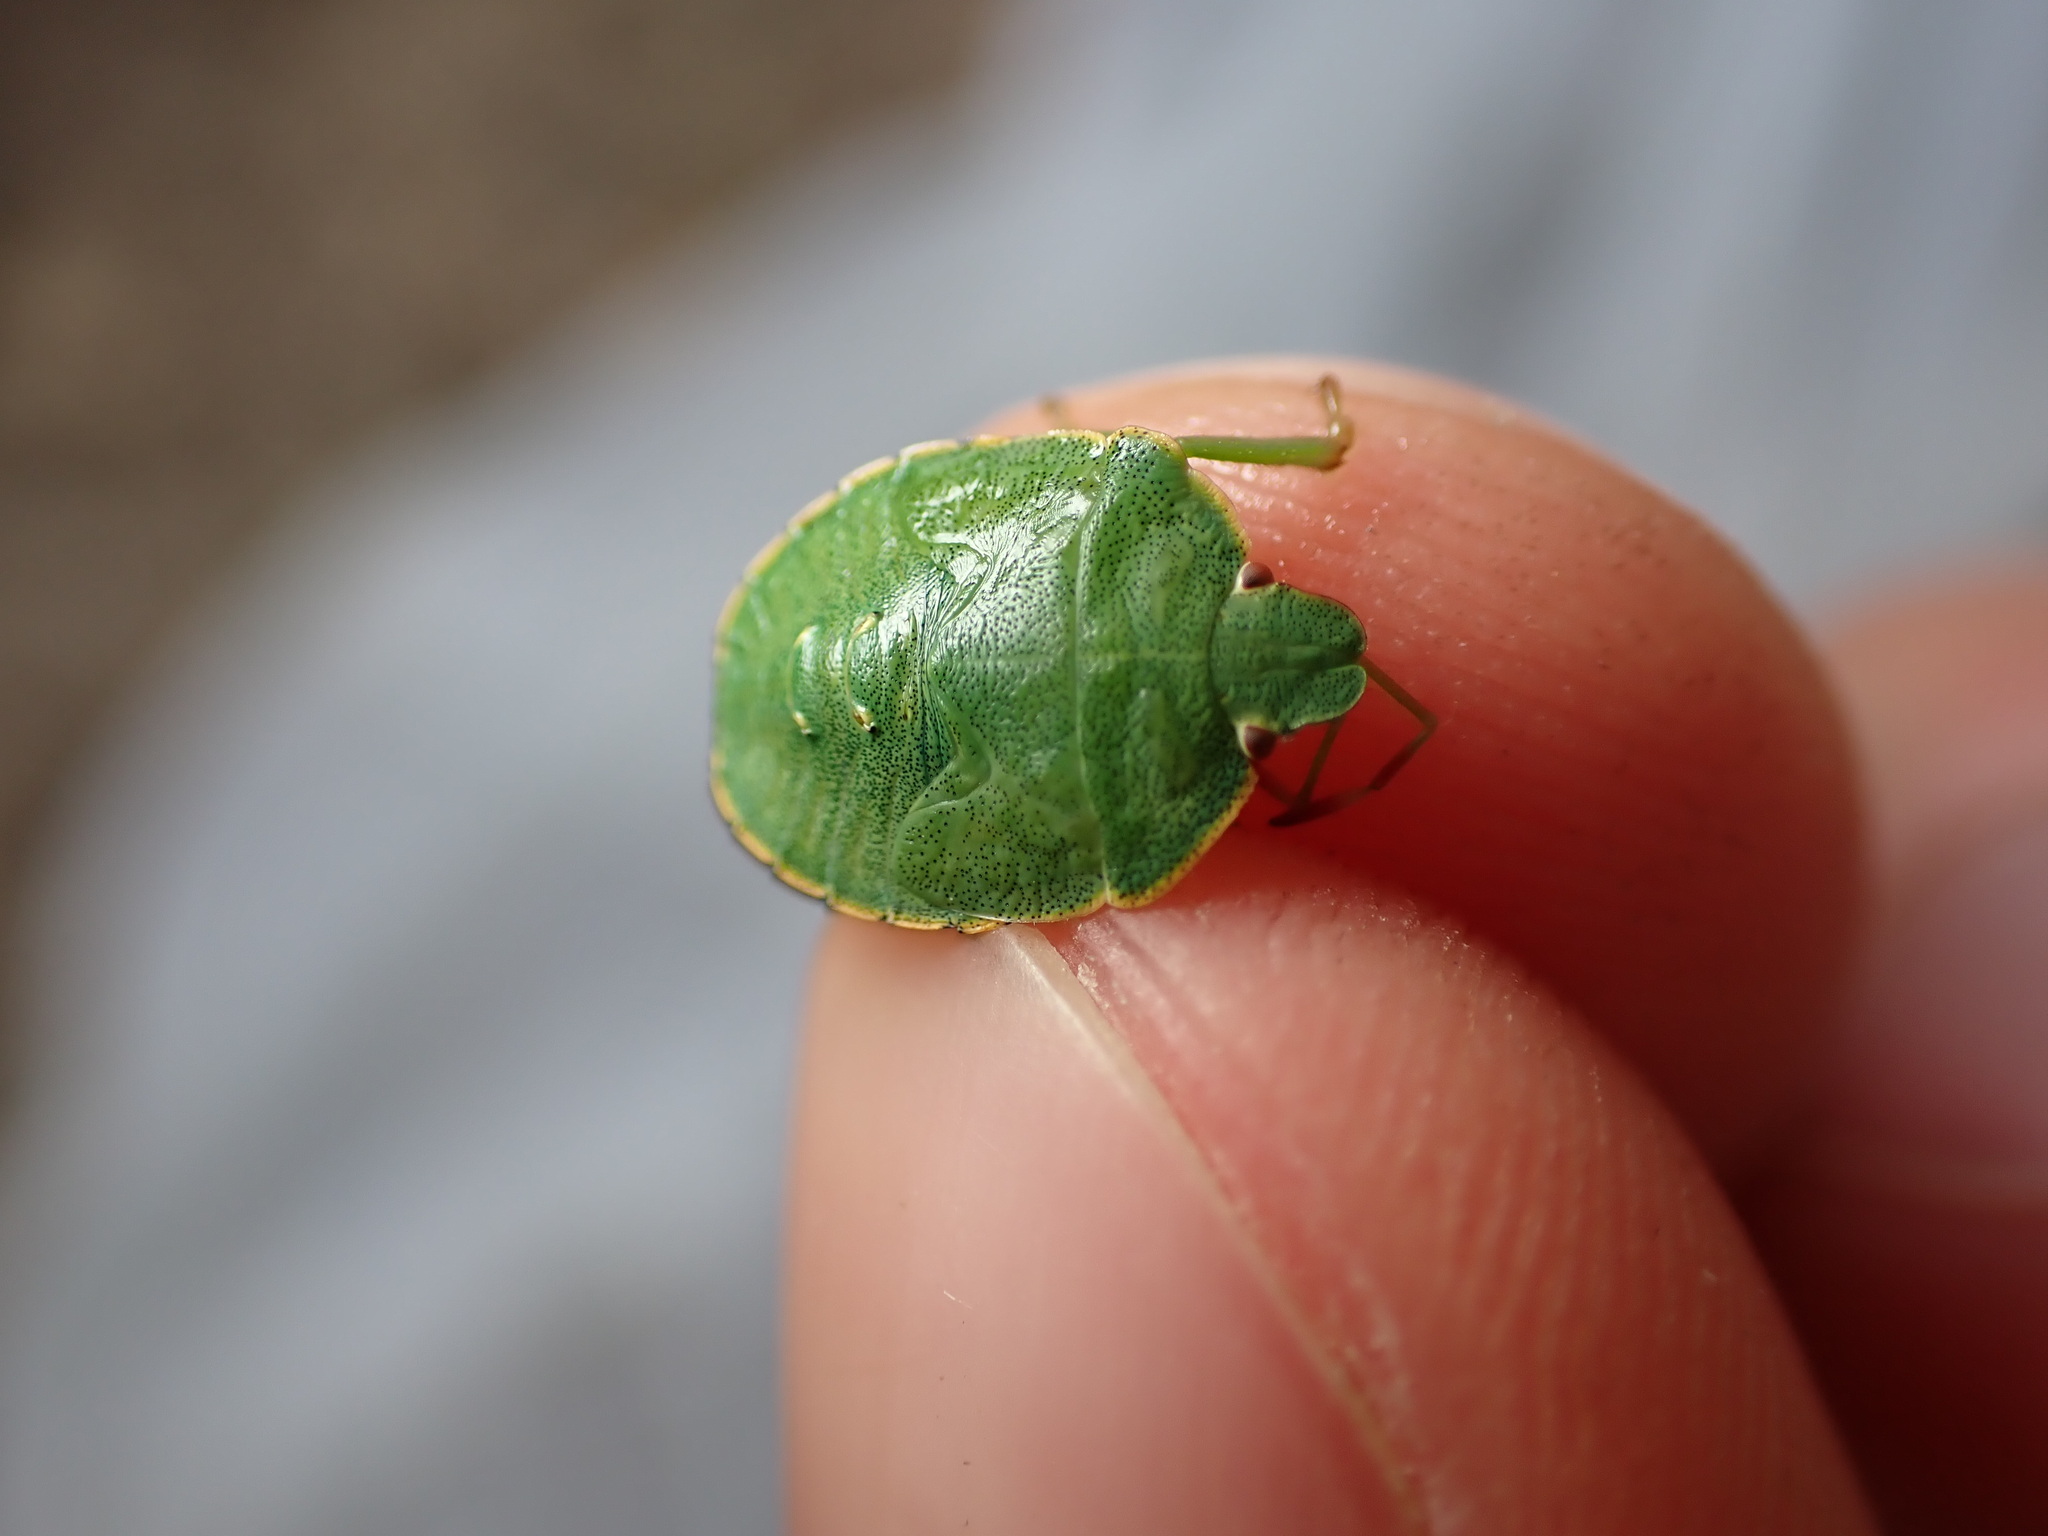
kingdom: Animalia
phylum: Arthropoda
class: Insecta
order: Hemiptera
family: Pentatomidae
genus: Palomena
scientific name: Palomena prasina
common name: Green shieldbug
